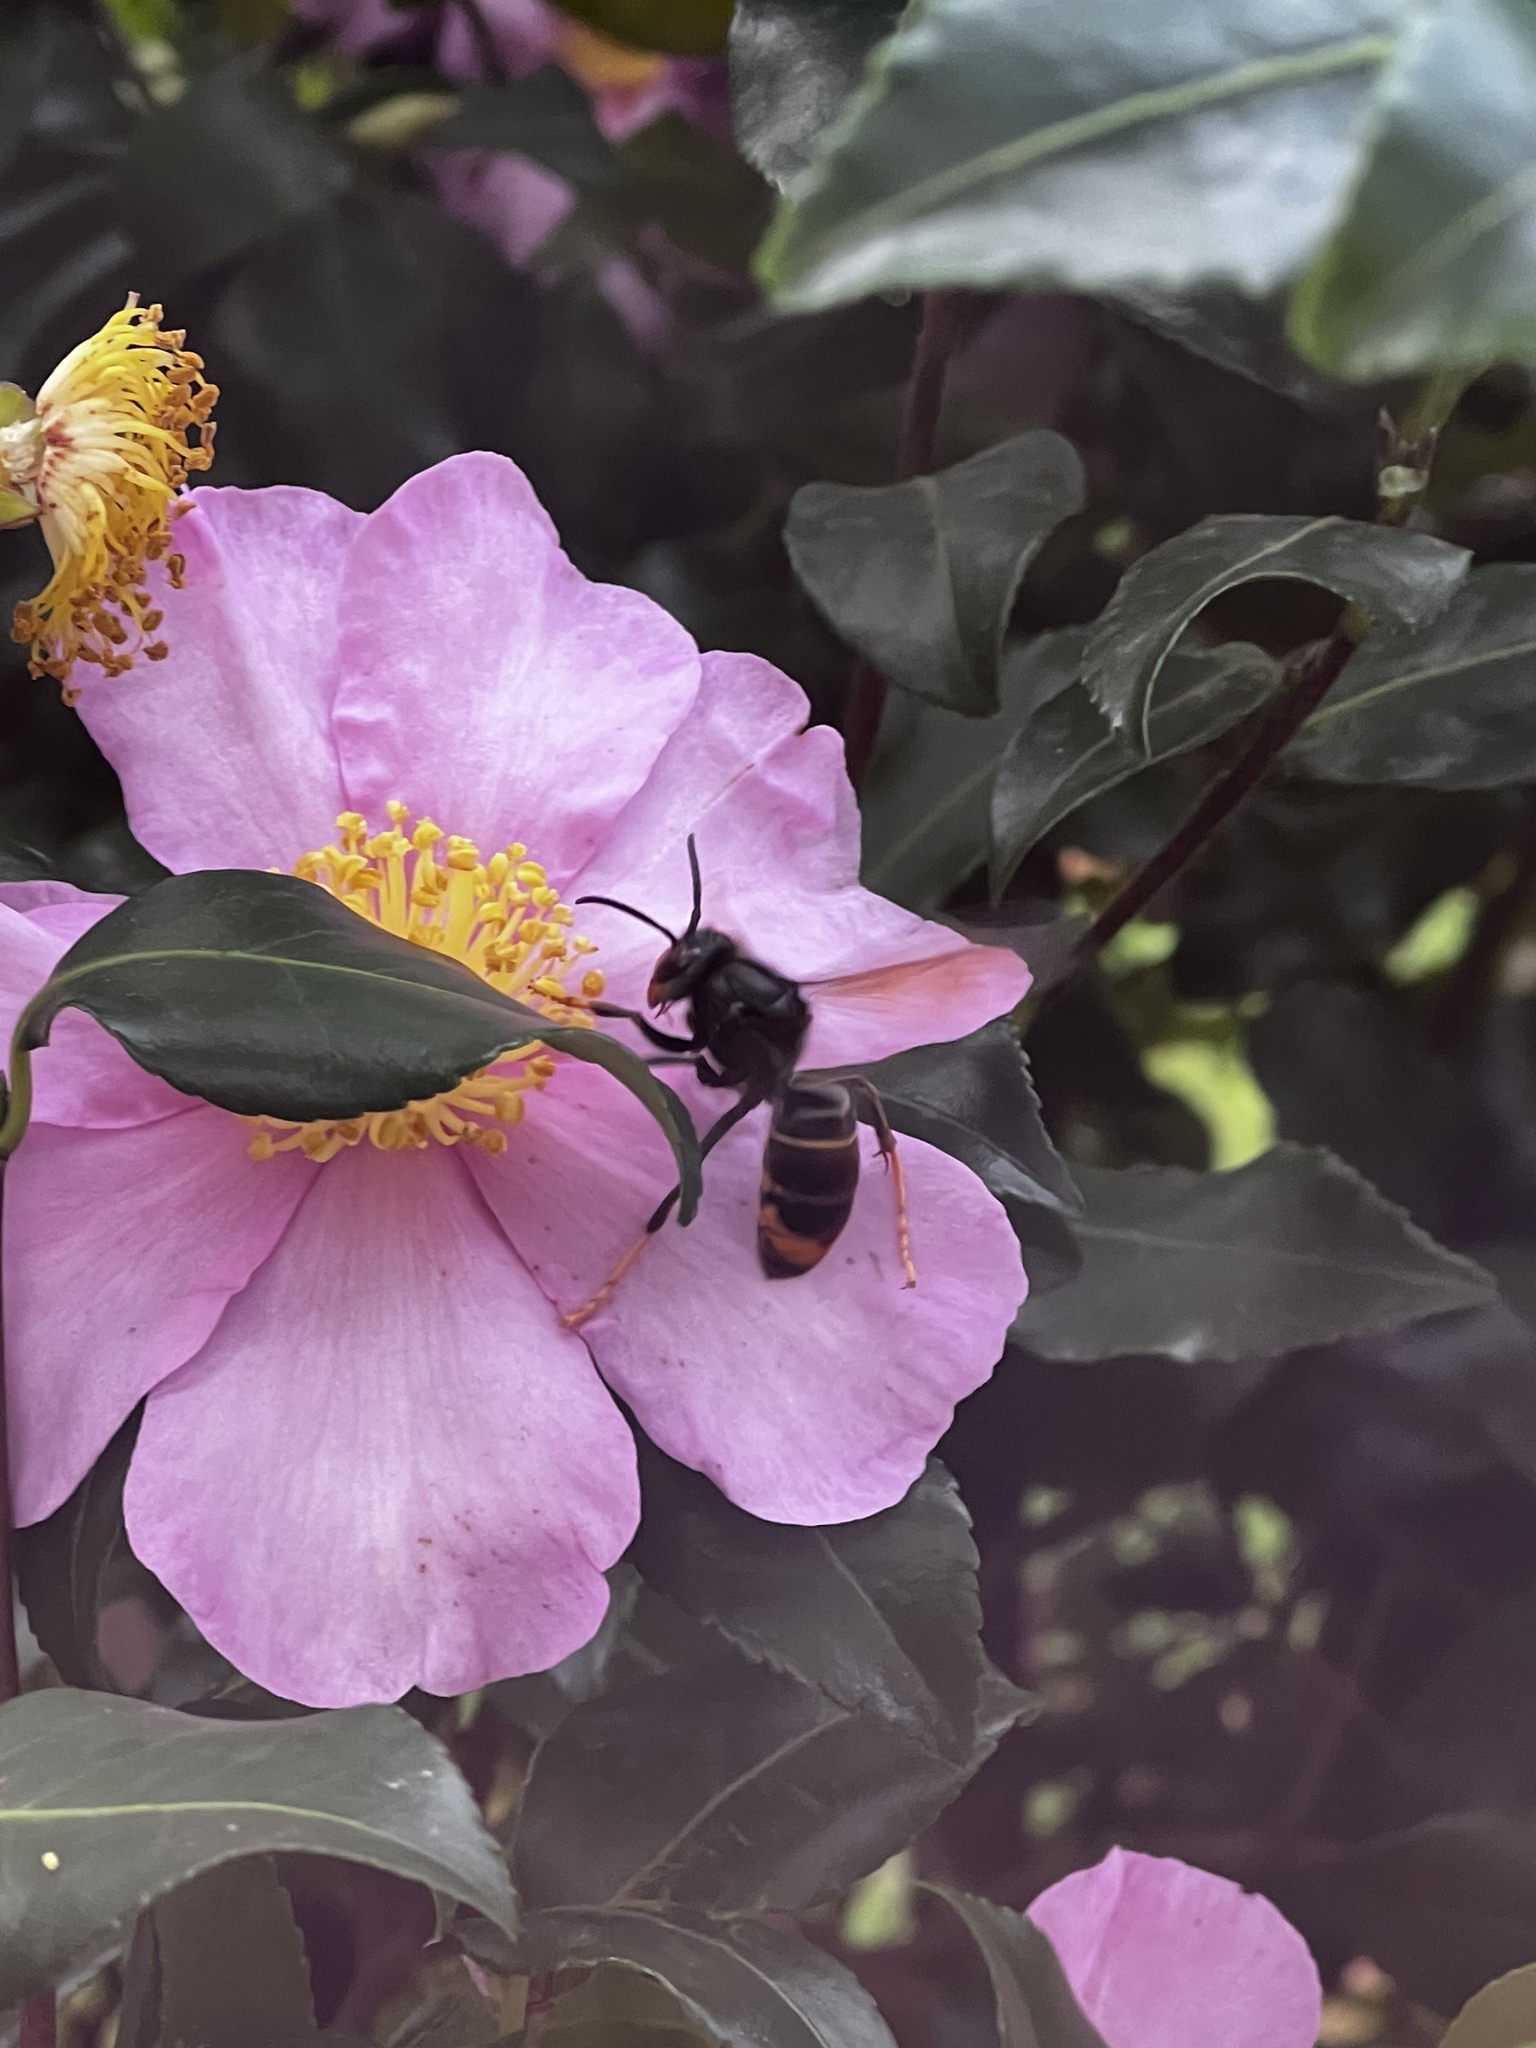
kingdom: Animalia
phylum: Arthropoda
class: Insecta
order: Hymenoptera
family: Vespidae
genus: Vespa
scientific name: Vespa velutina
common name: Asian hornet
